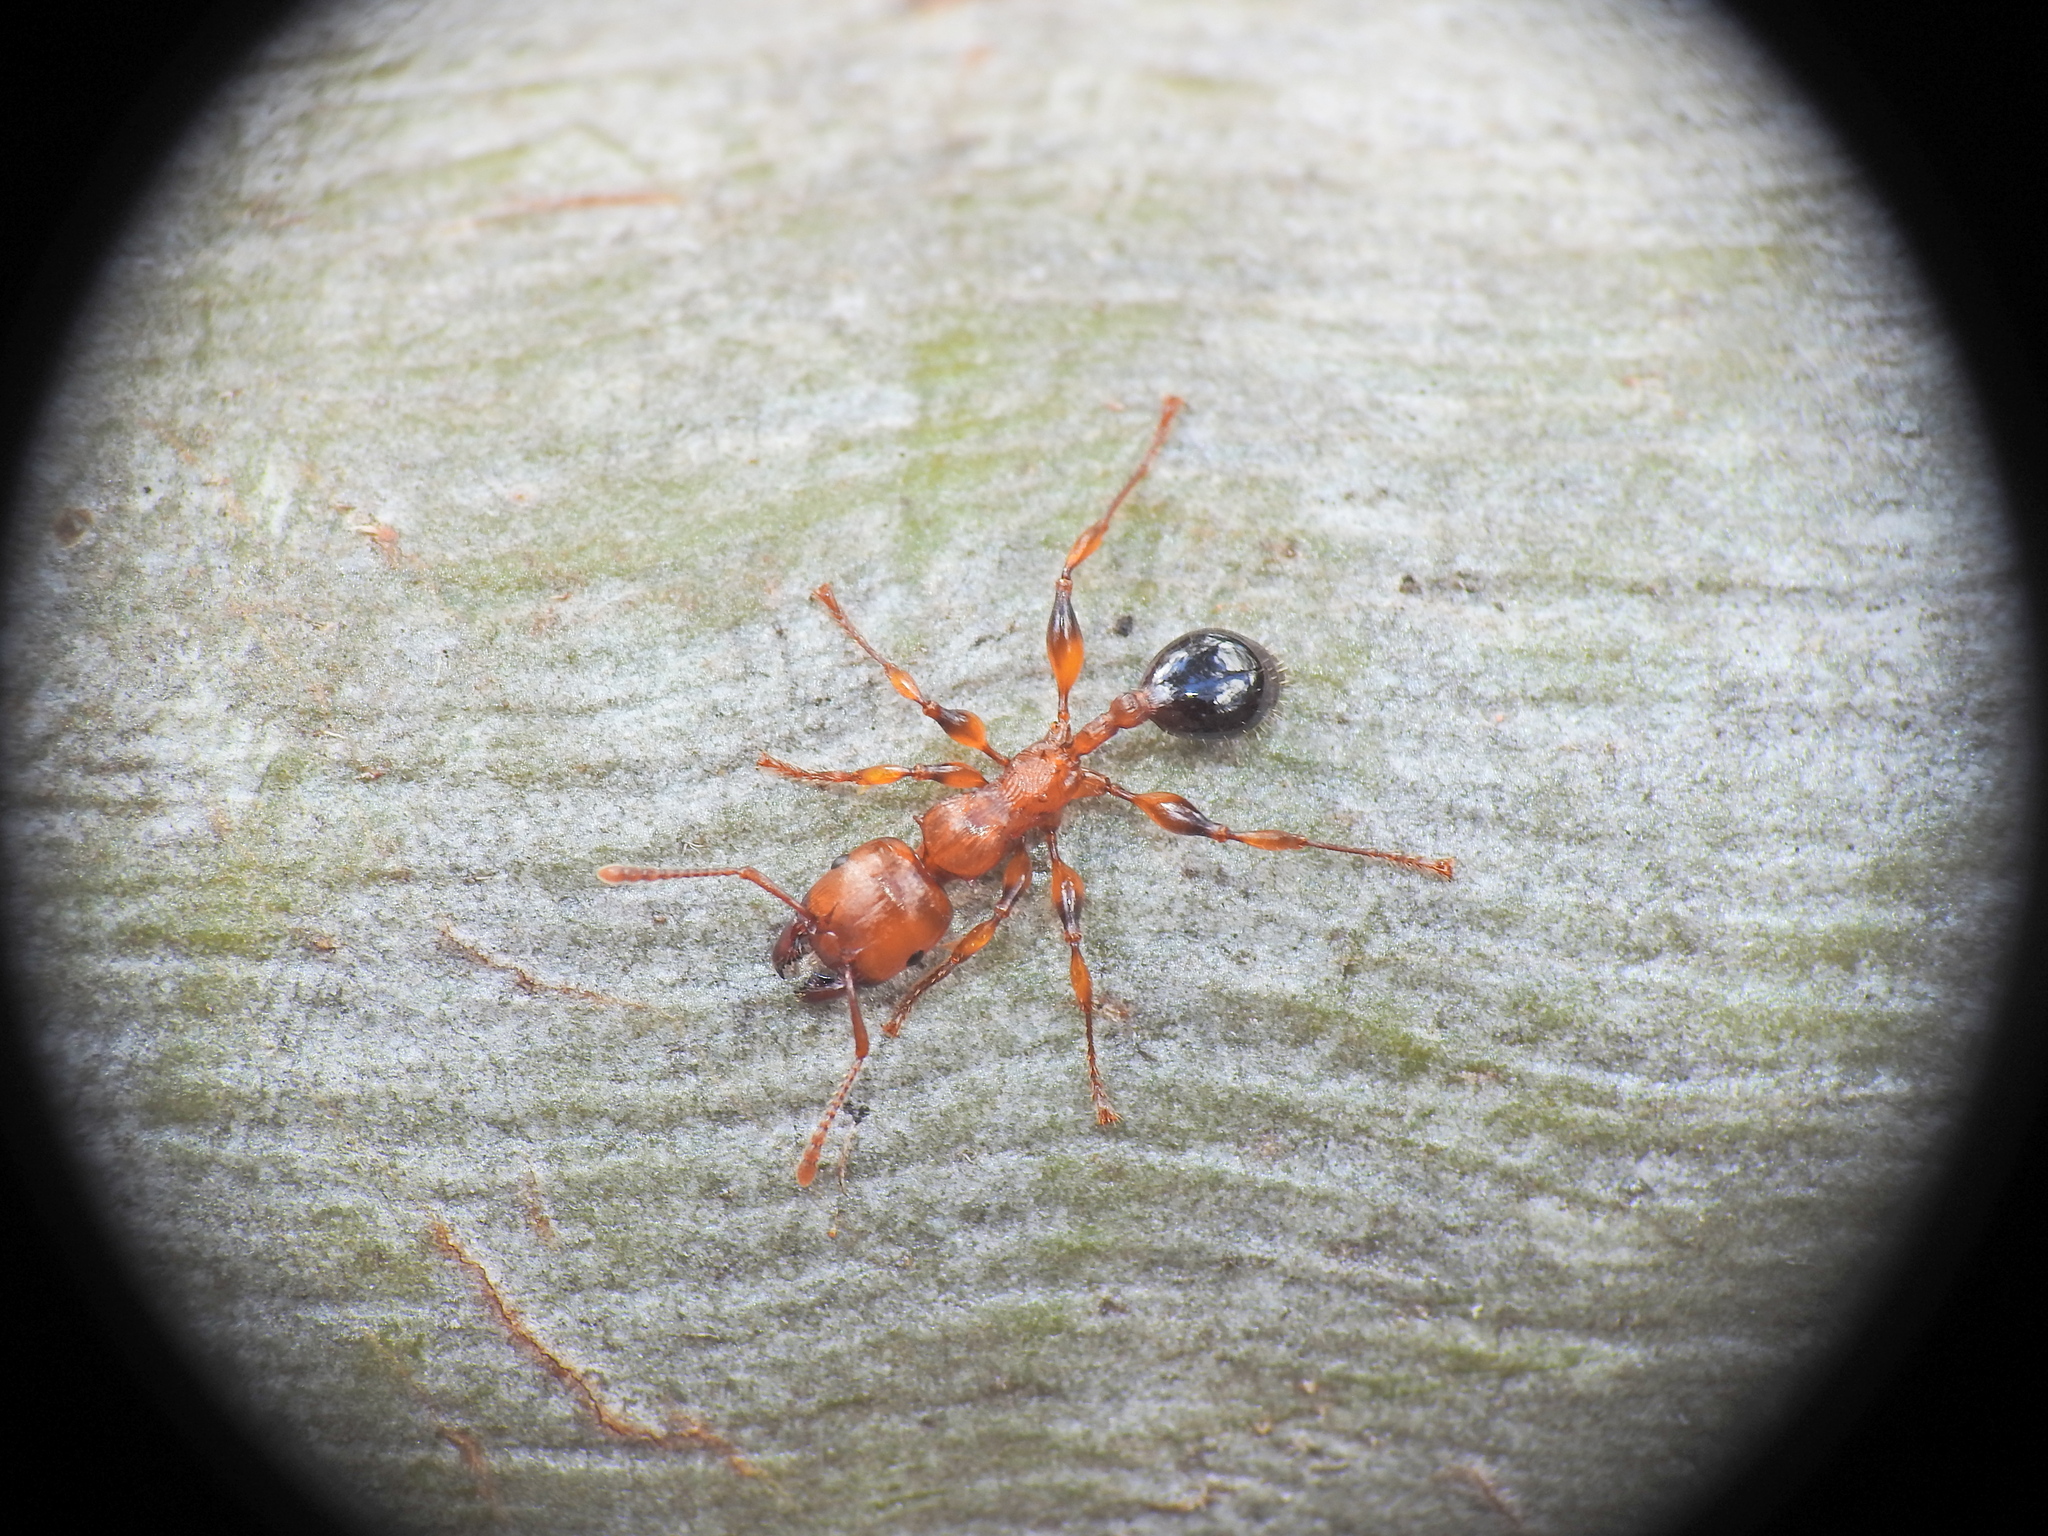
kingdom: Animalia
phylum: Arthropoda
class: Insecta
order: Hymenoptera
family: Formicidae
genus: Podomyrma
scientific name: Podomyrma gratiosa
